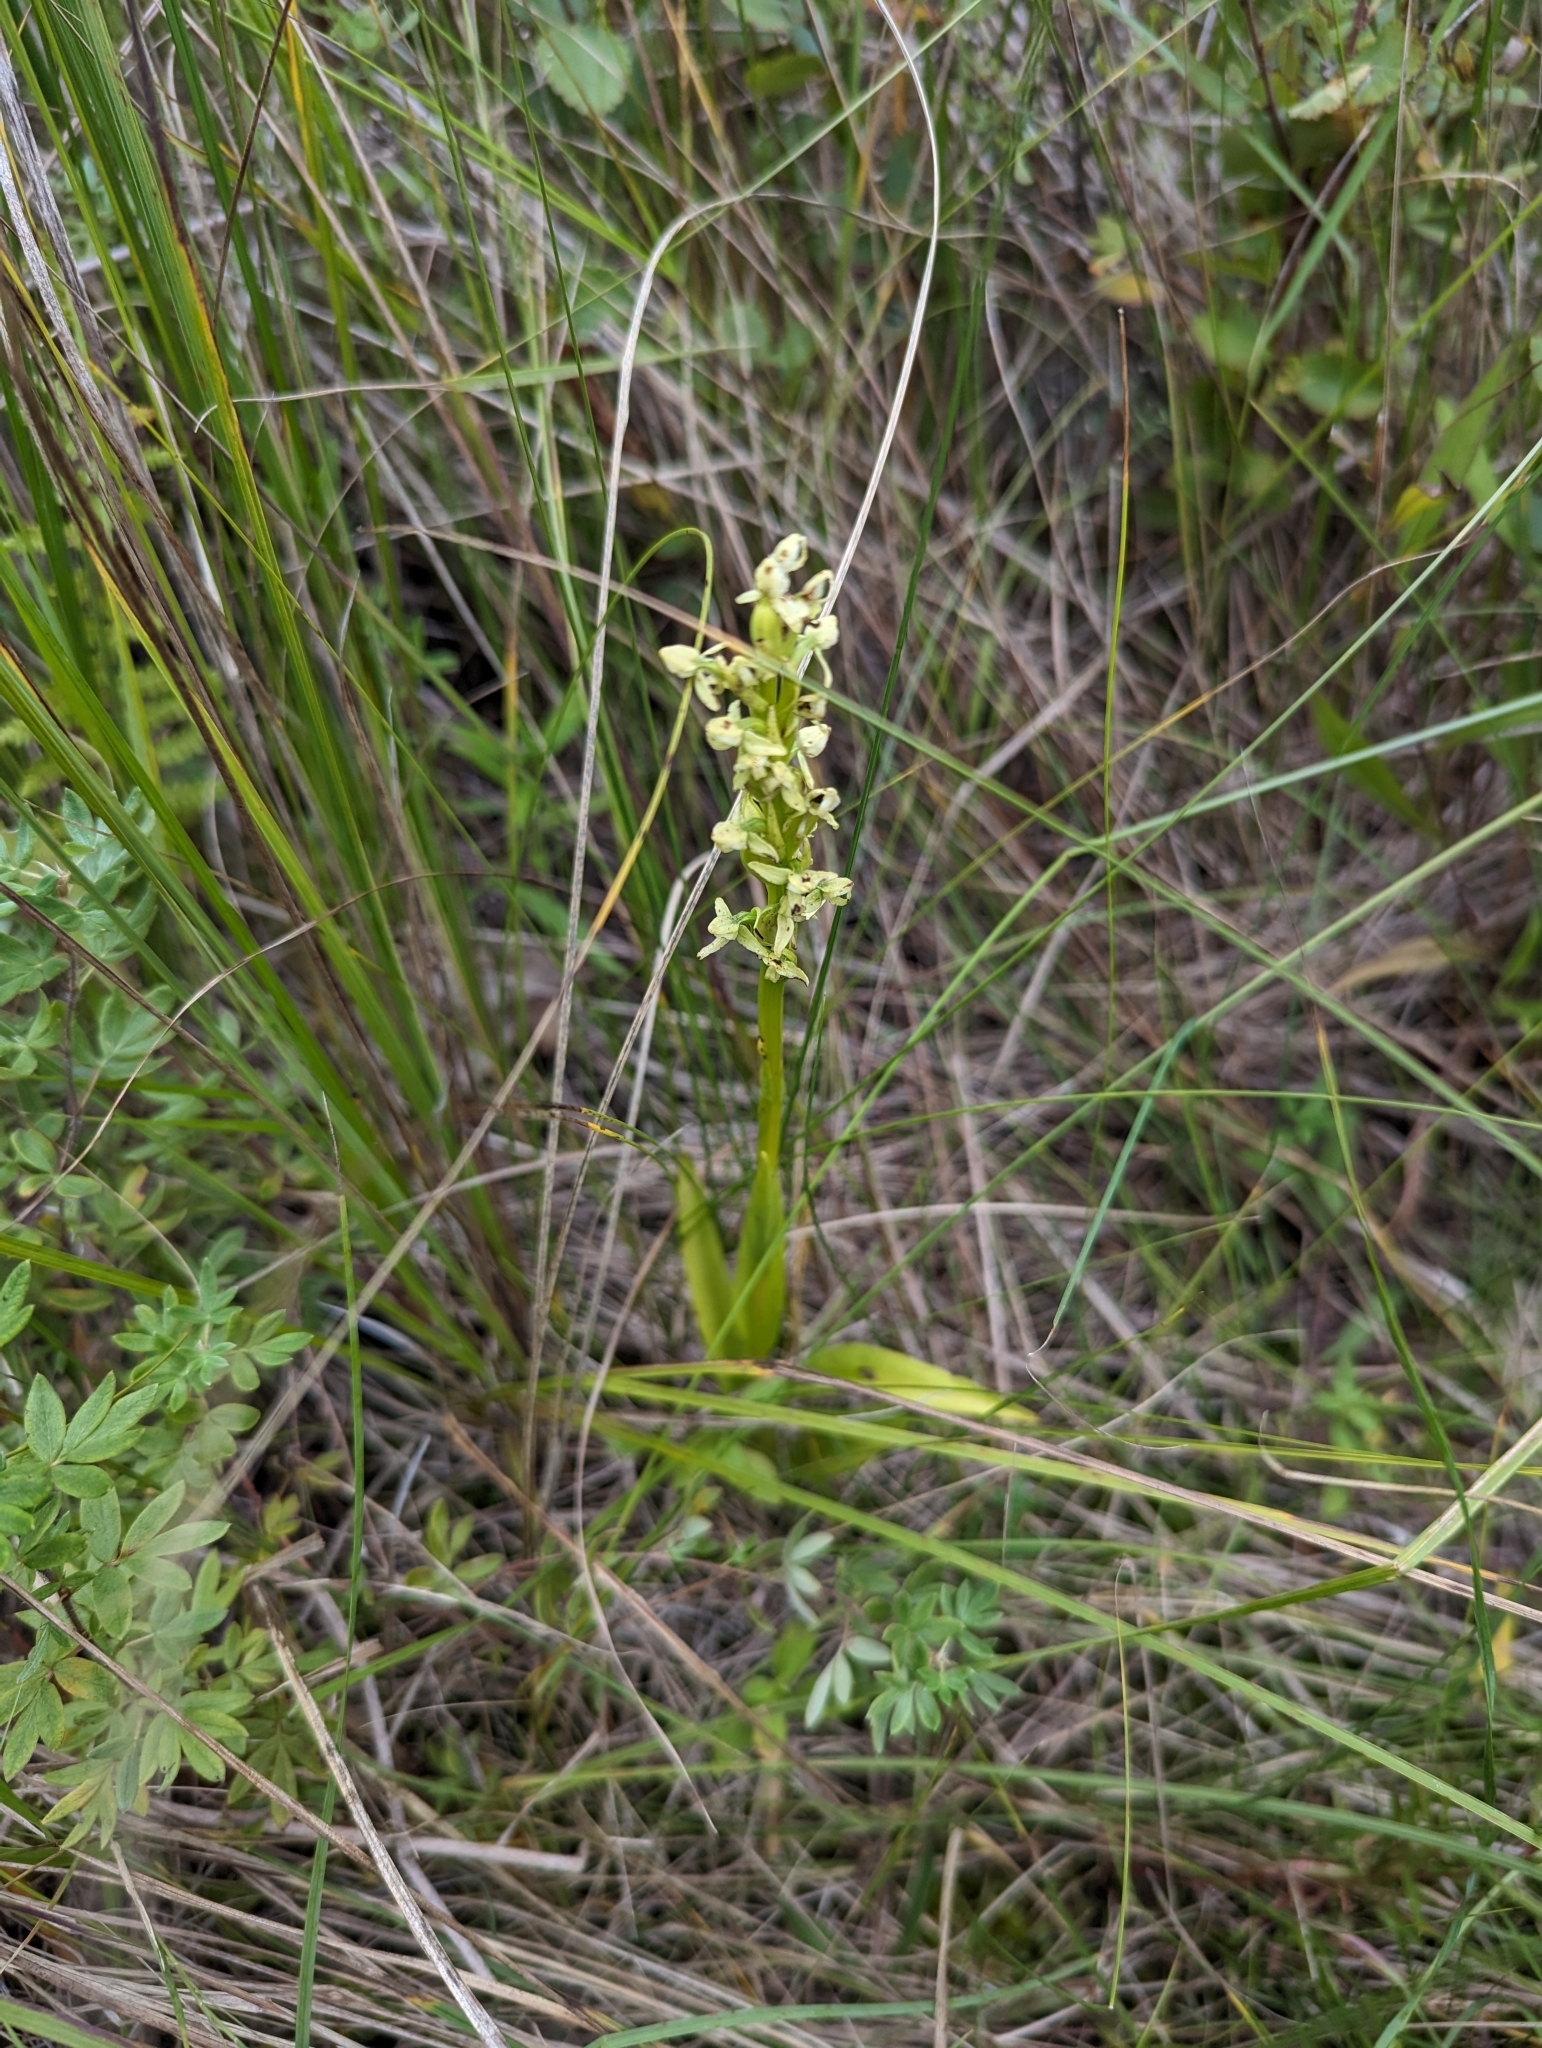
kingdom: Plantae
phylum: Tracheophyta
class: Liliopsida
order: Asparagales
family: Orchidaceae
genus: Platanthera
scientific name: Platanthera huronensis
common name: Fragrant green orchid
